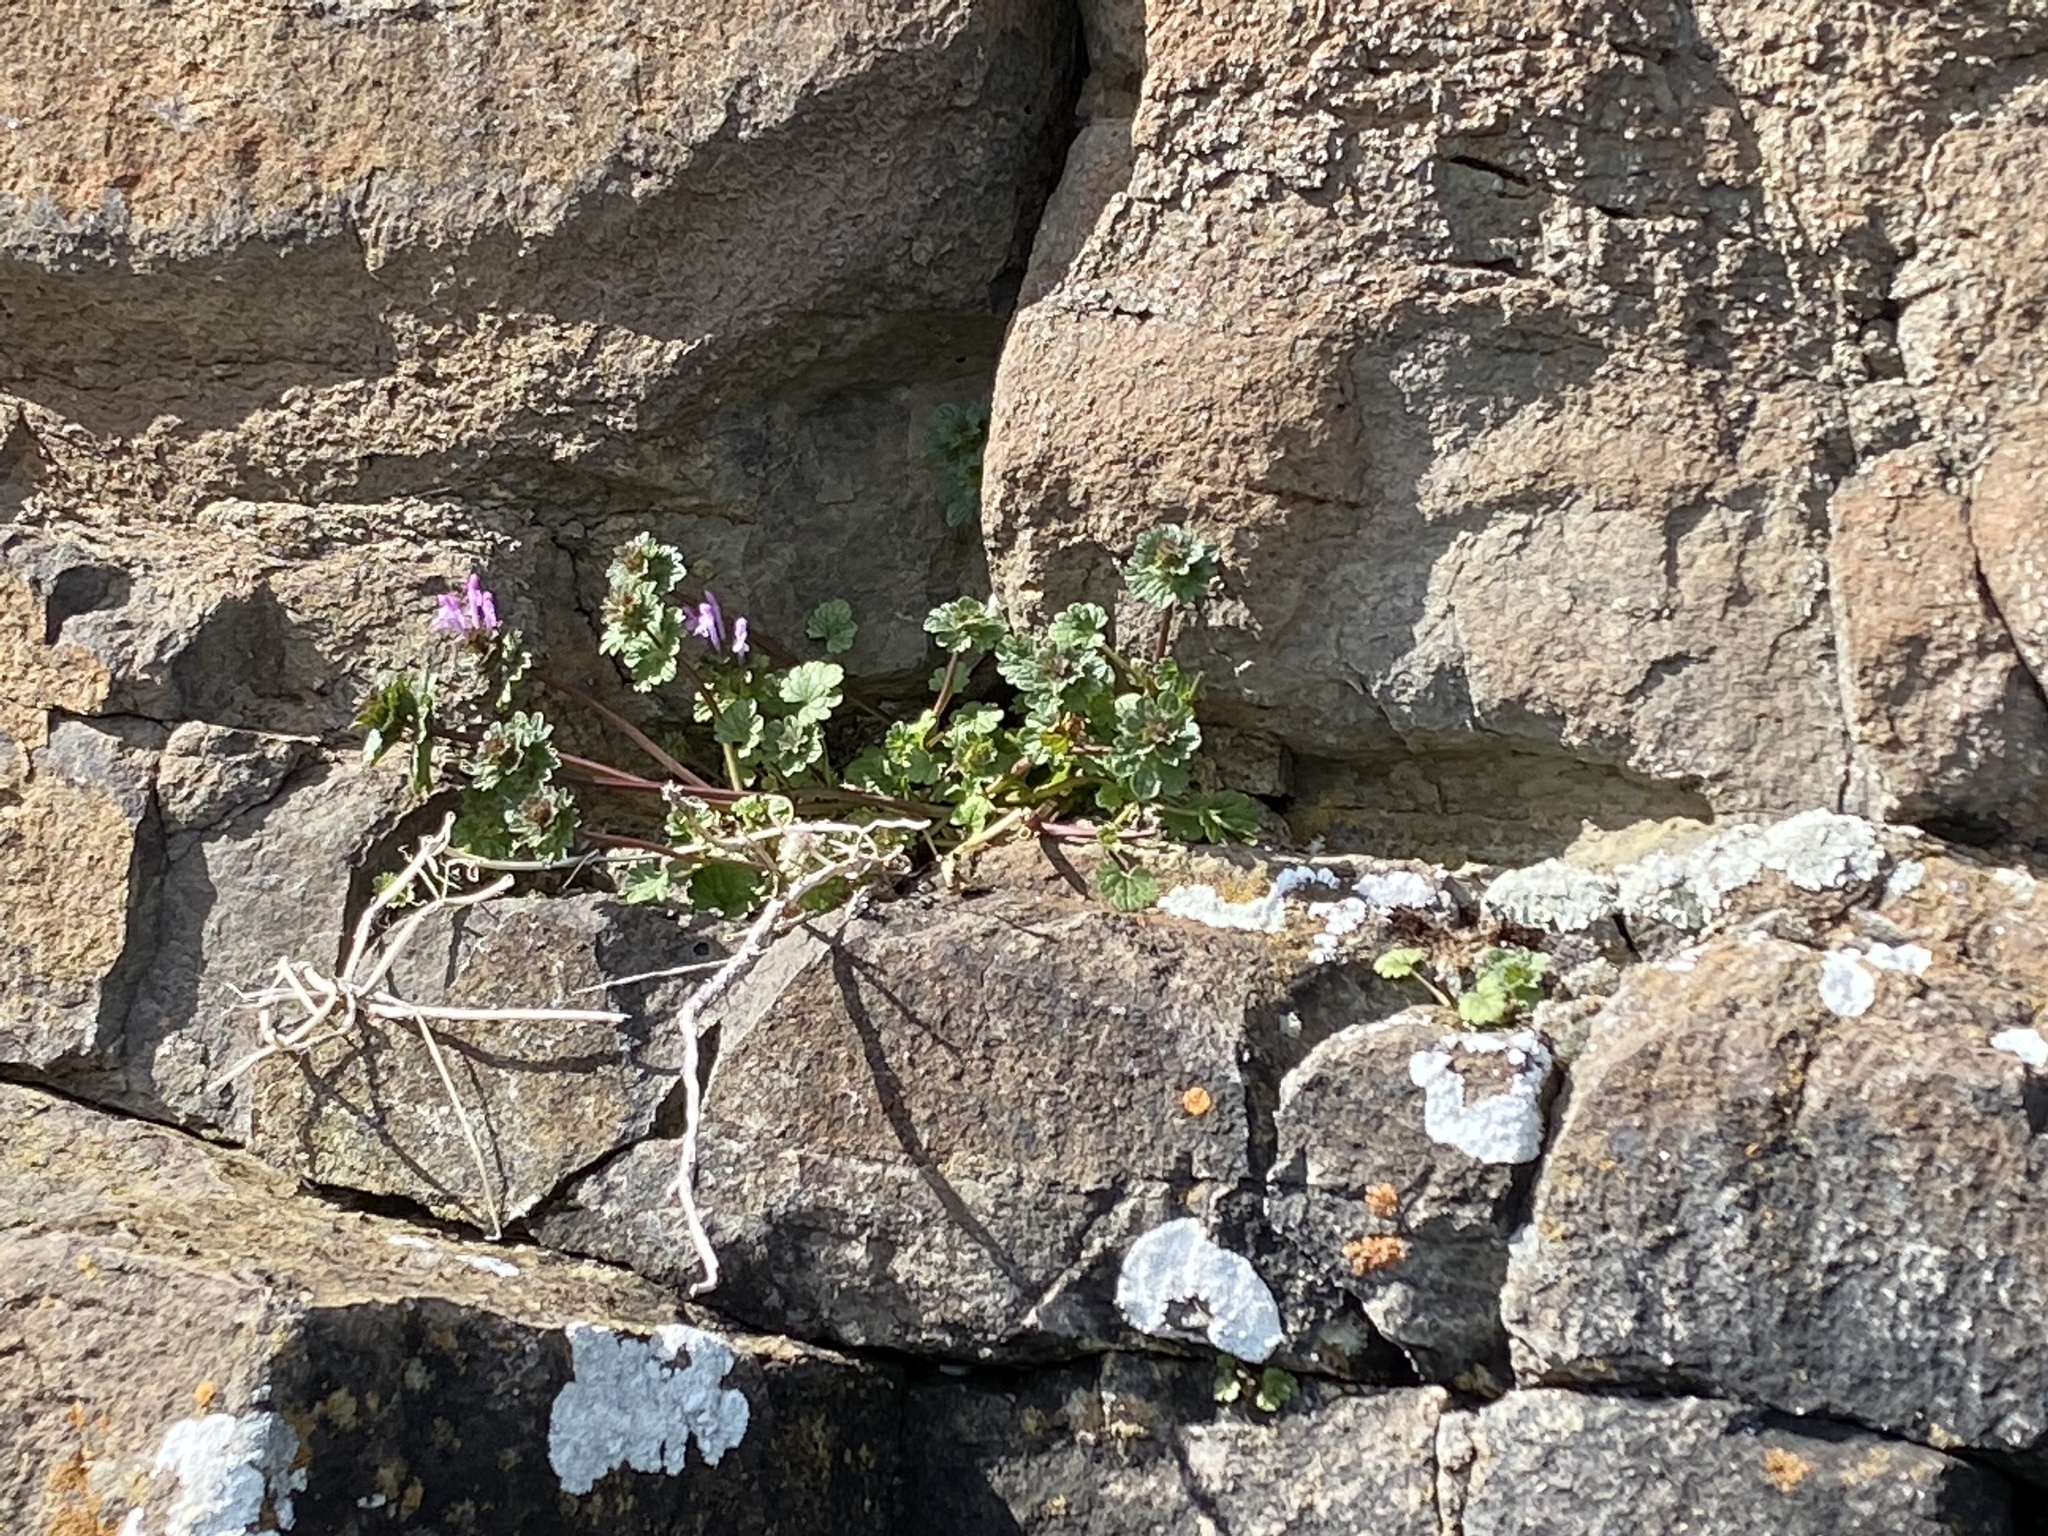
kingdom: Plantae
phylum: Tracheophyta
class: Magnoliopsida
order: Lamiales
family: Lamiaceae
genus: Lamium
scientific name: Lamium amplexicaule
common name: Henbit dead-nettle
